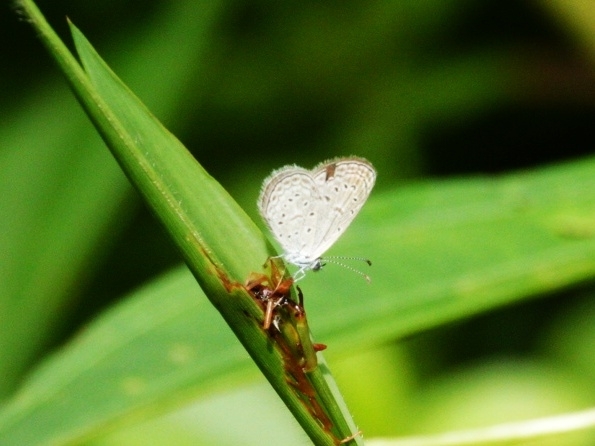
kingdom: Animalia
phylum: Arthropoda
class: Insecta
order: Lepidoptera
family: Lycaenidae
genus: Zizula
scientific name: Zizula hylax
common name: Gaika blue
